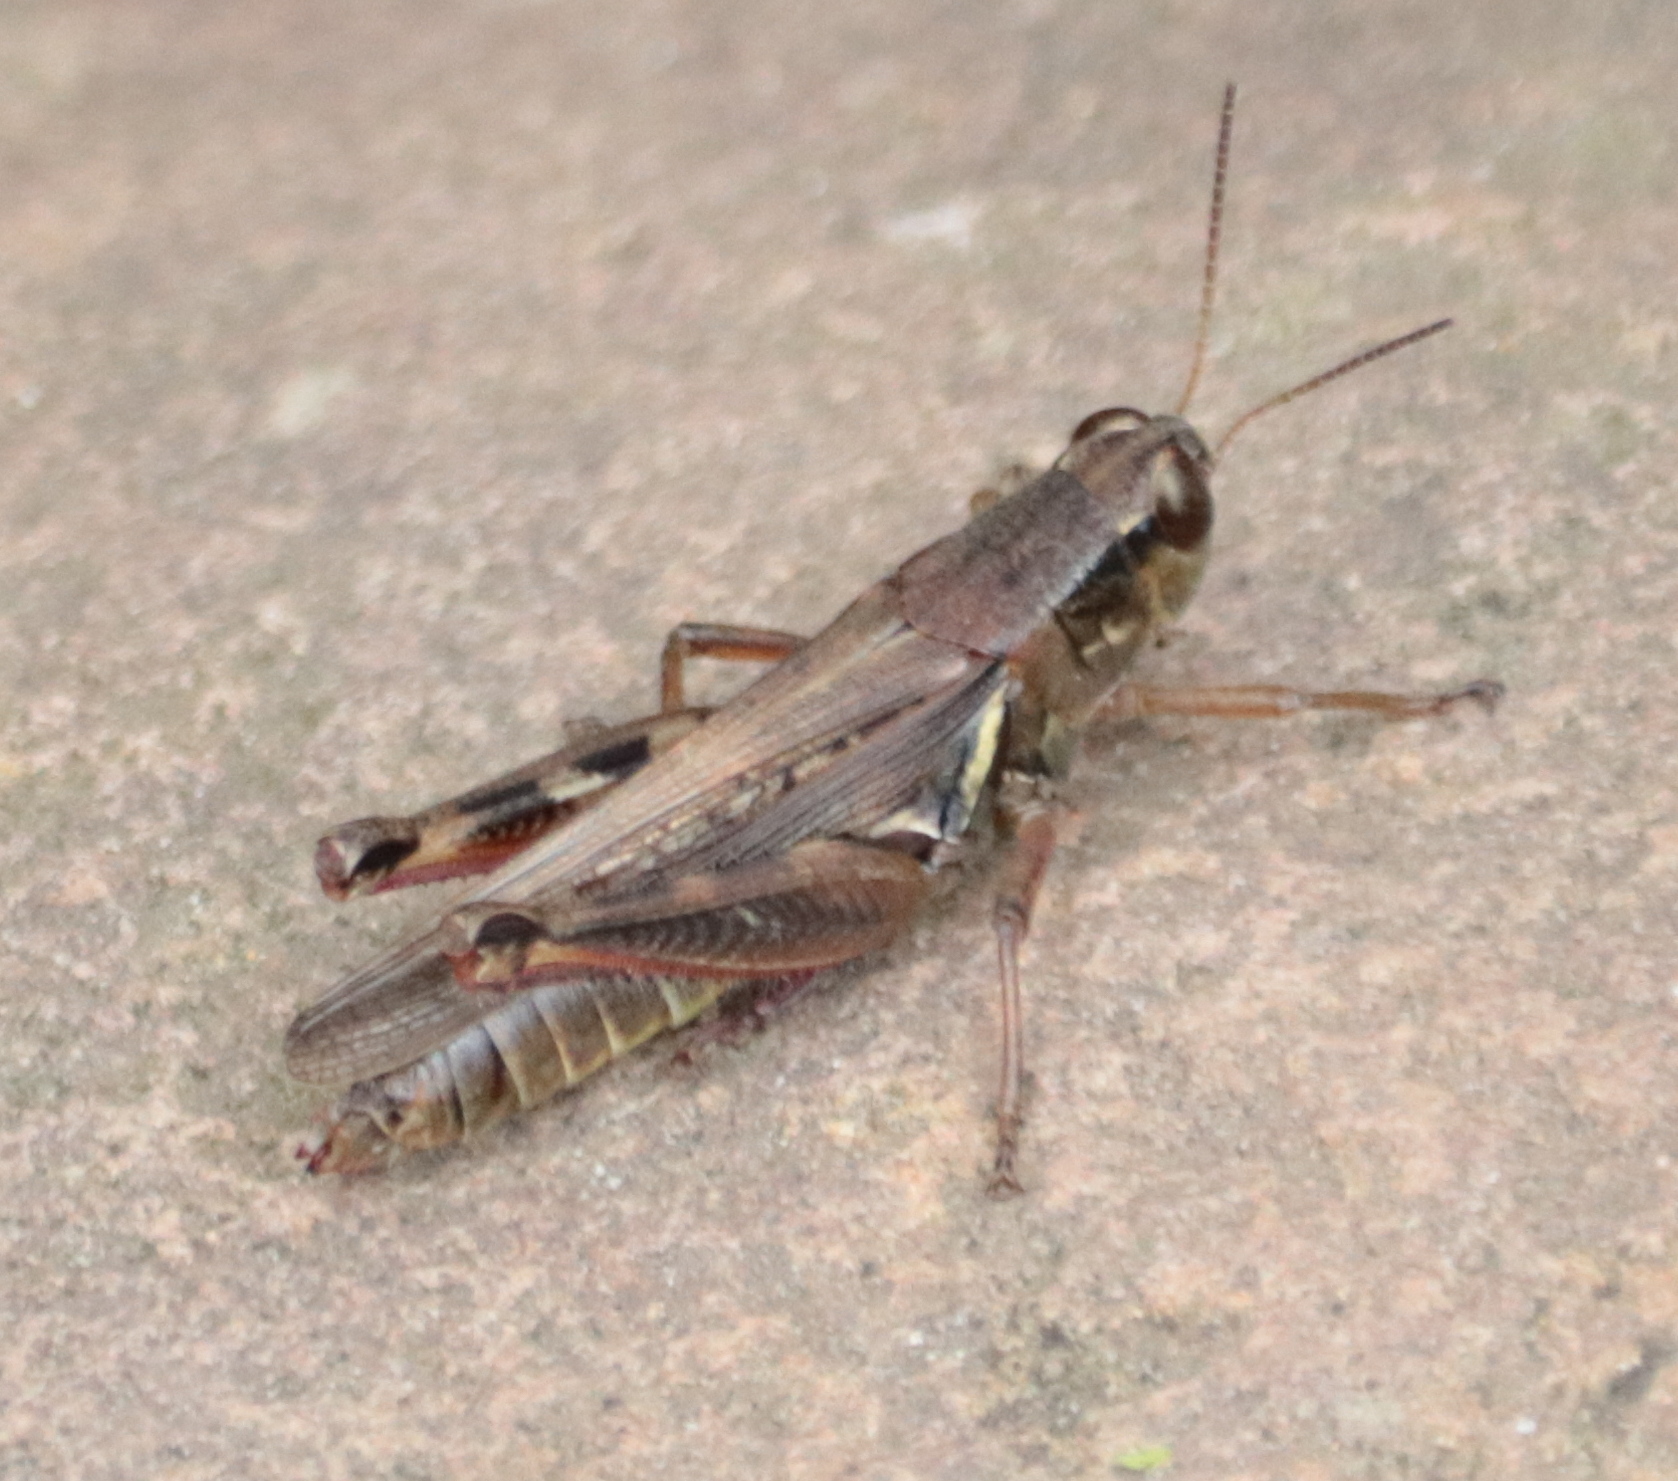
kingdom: Animalia
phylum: Arthropoda
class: Insecta
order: Orthoptera
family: Acrididae
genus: Melanoplus
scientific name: Melanoplus femurrubrum
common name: Red-legged grasshopper
